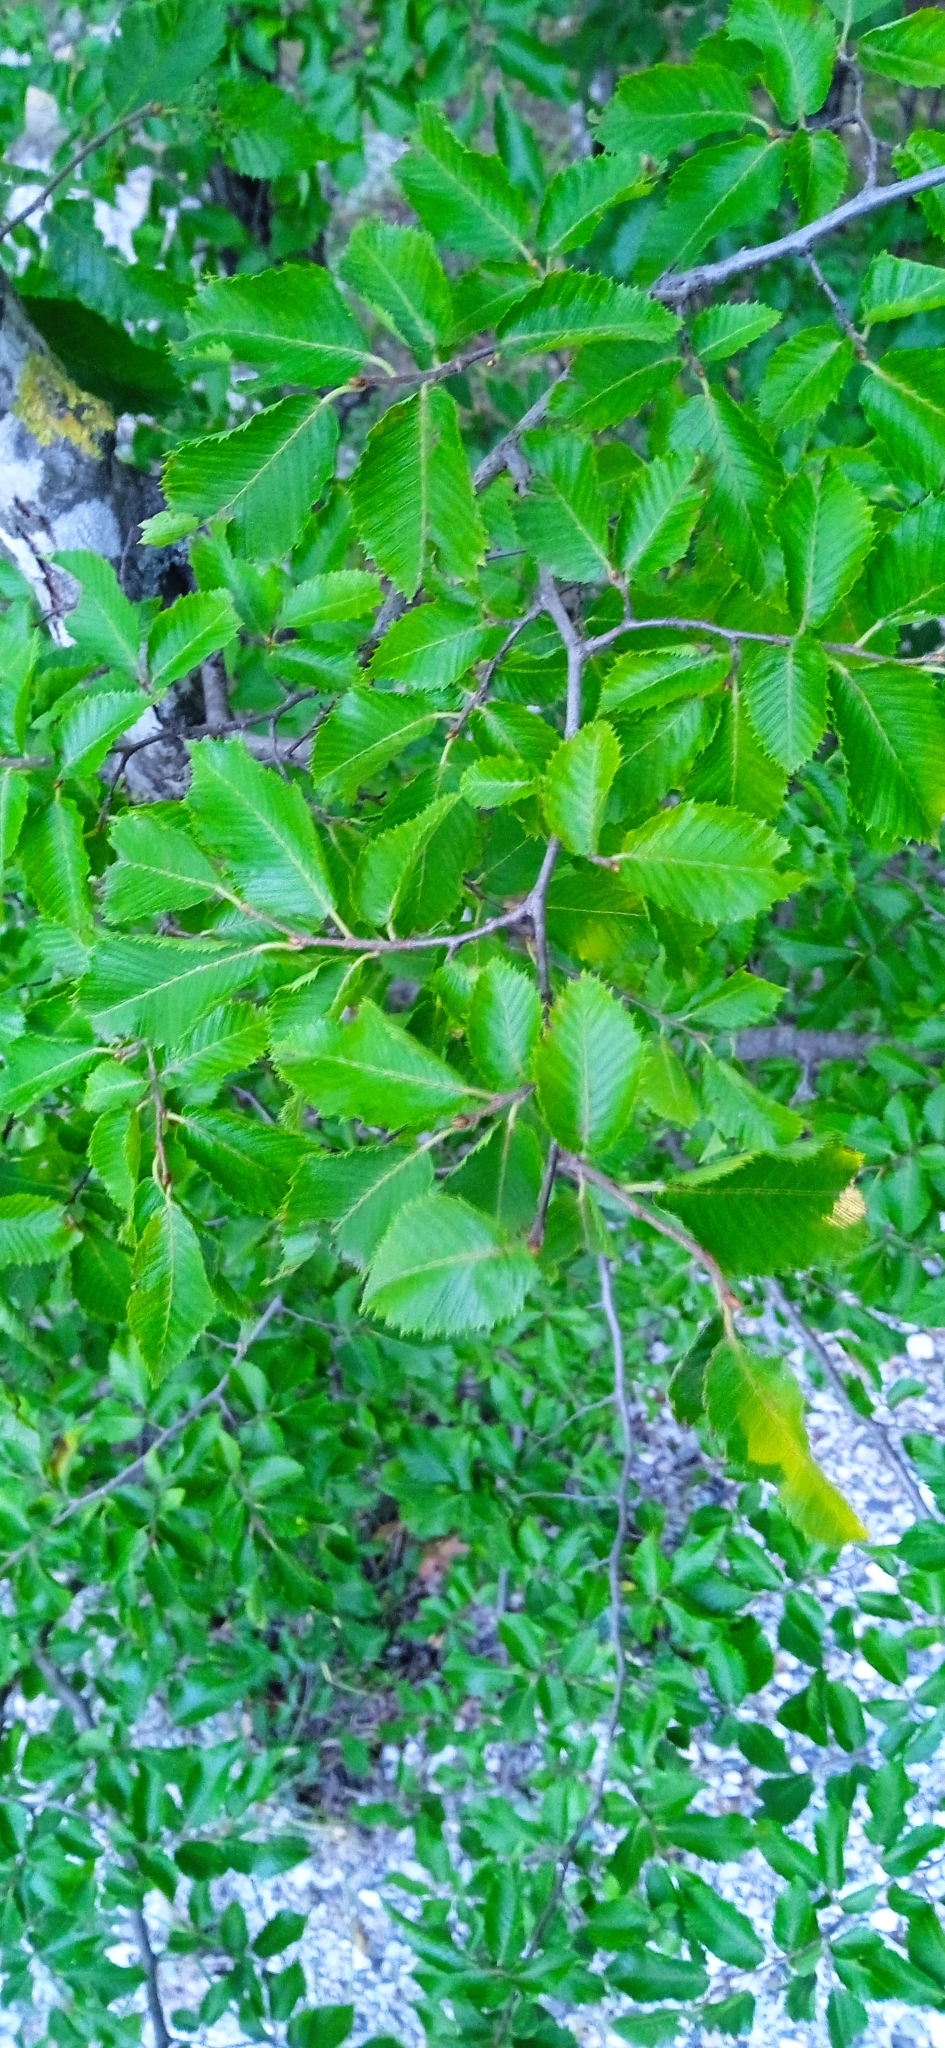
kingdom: Plantae
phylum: Tracheophyta
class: Magnoliopsida
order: Rosales
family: Ulmaceae
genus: Ulmus
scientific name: Ulmus pumila
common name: Siberian elm
